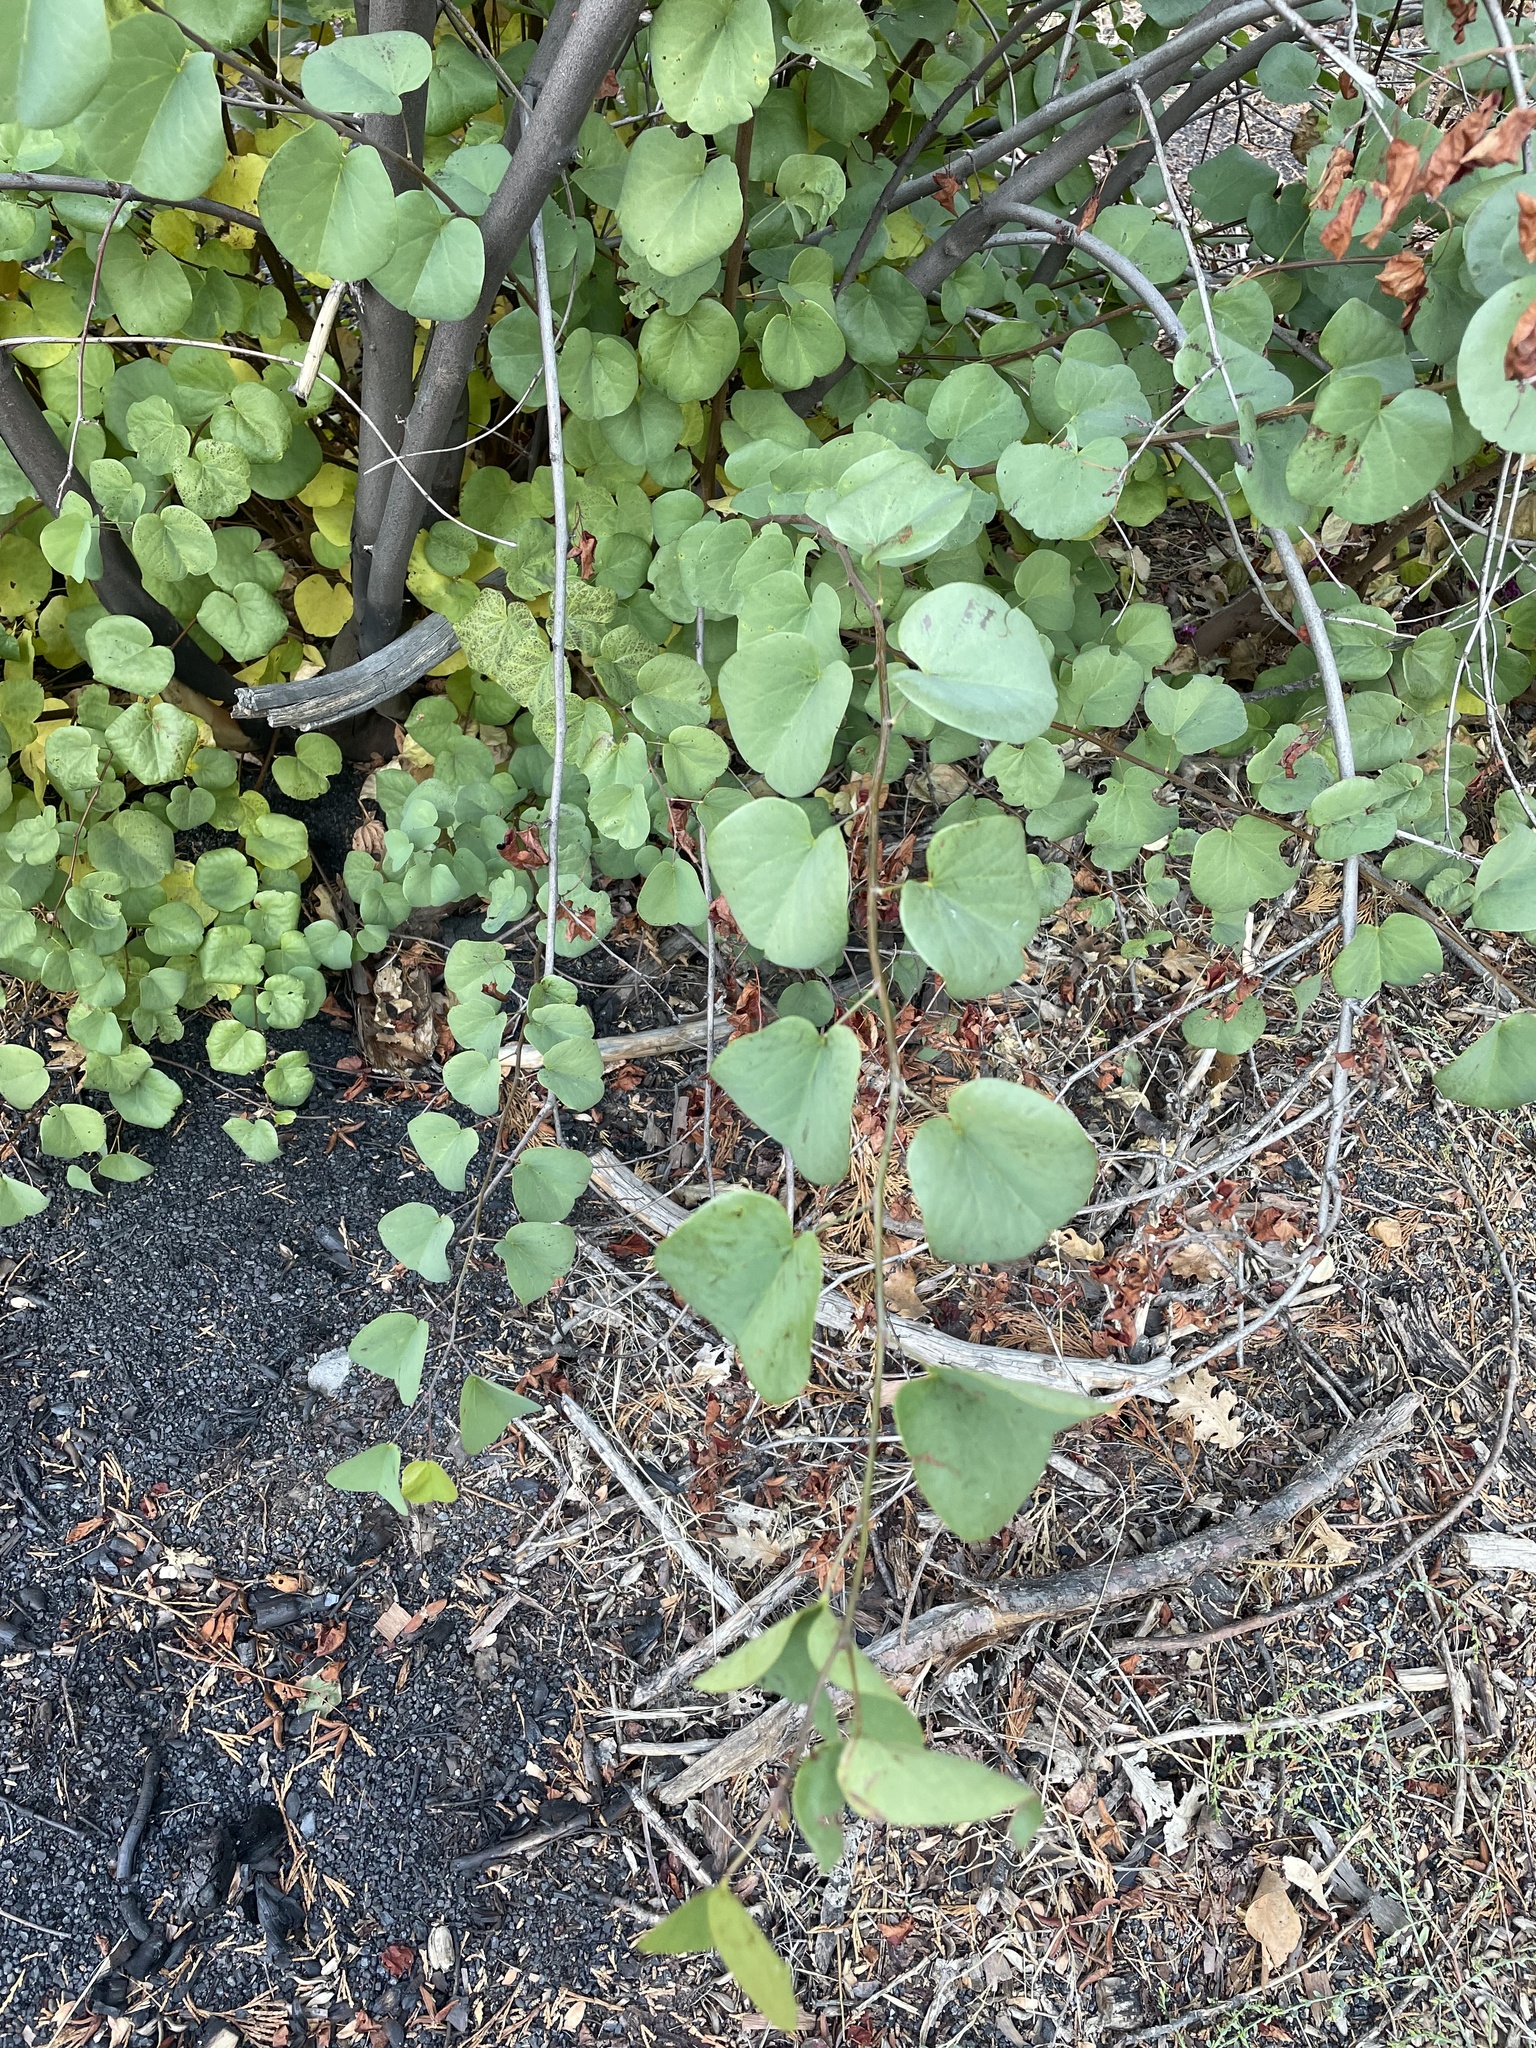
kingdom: Plantae
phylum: Tracheophyta
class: Magnoliopsida
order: Fabales
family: Fabaceae
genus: Cercis
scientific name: Cercis occidentalis
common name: California redbud
